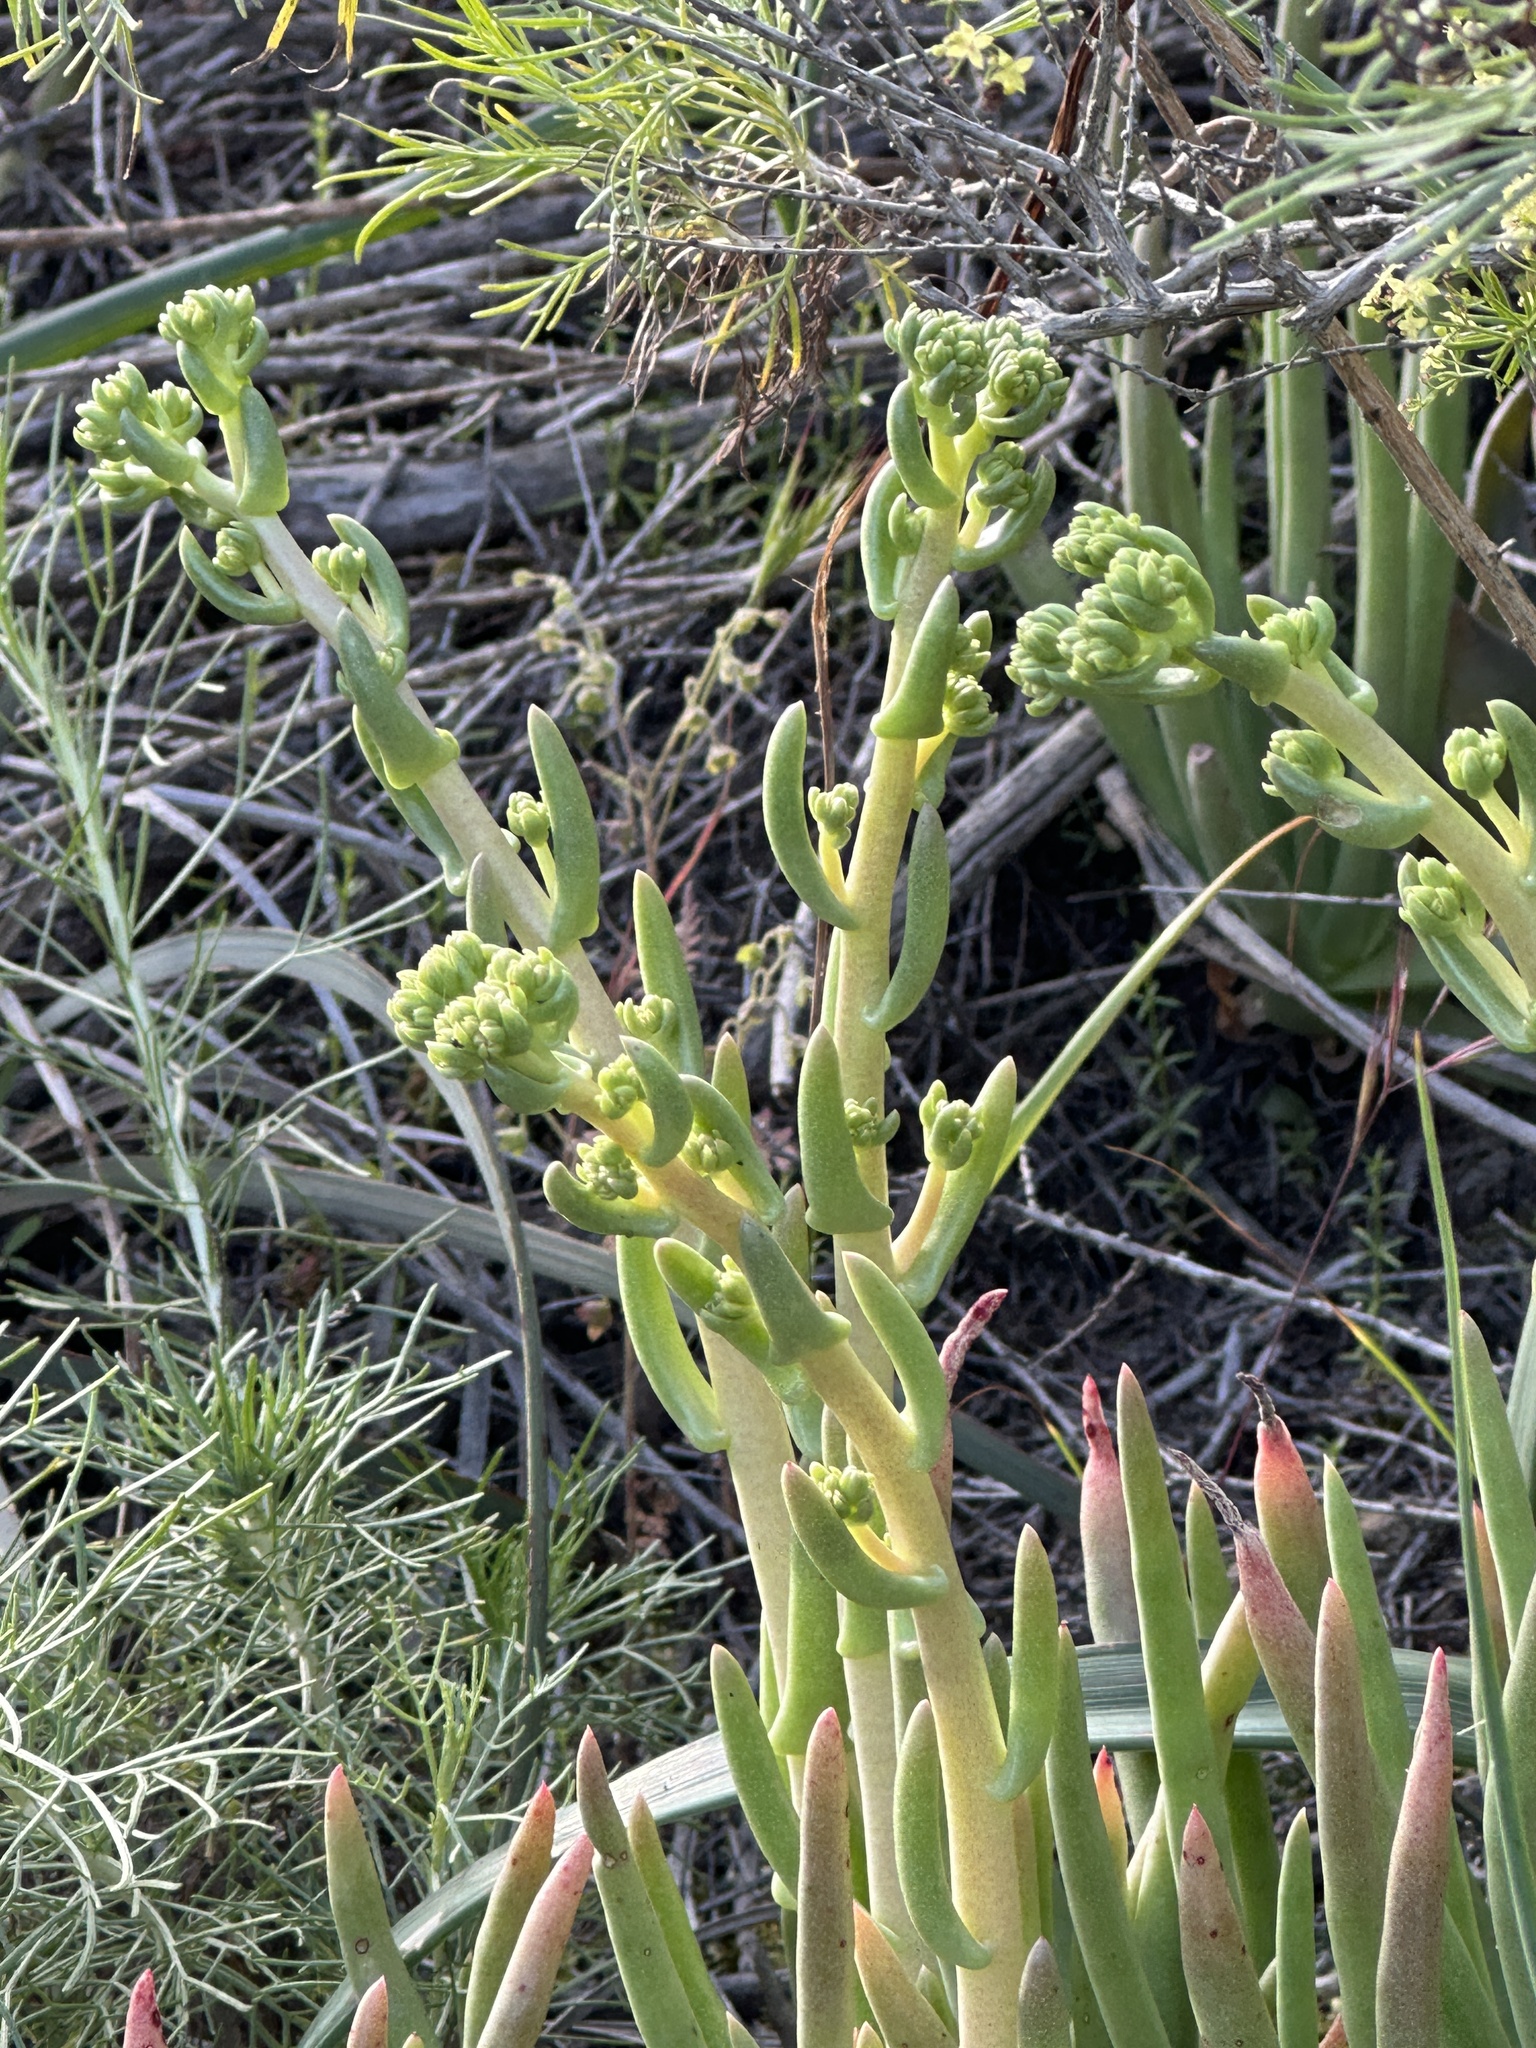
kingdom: Plantae
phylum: Tracheophyta
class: Magnoliopsida
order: Saxifragales
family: Crassulaceae
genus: Dudleya
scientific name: Dudleya edulis
